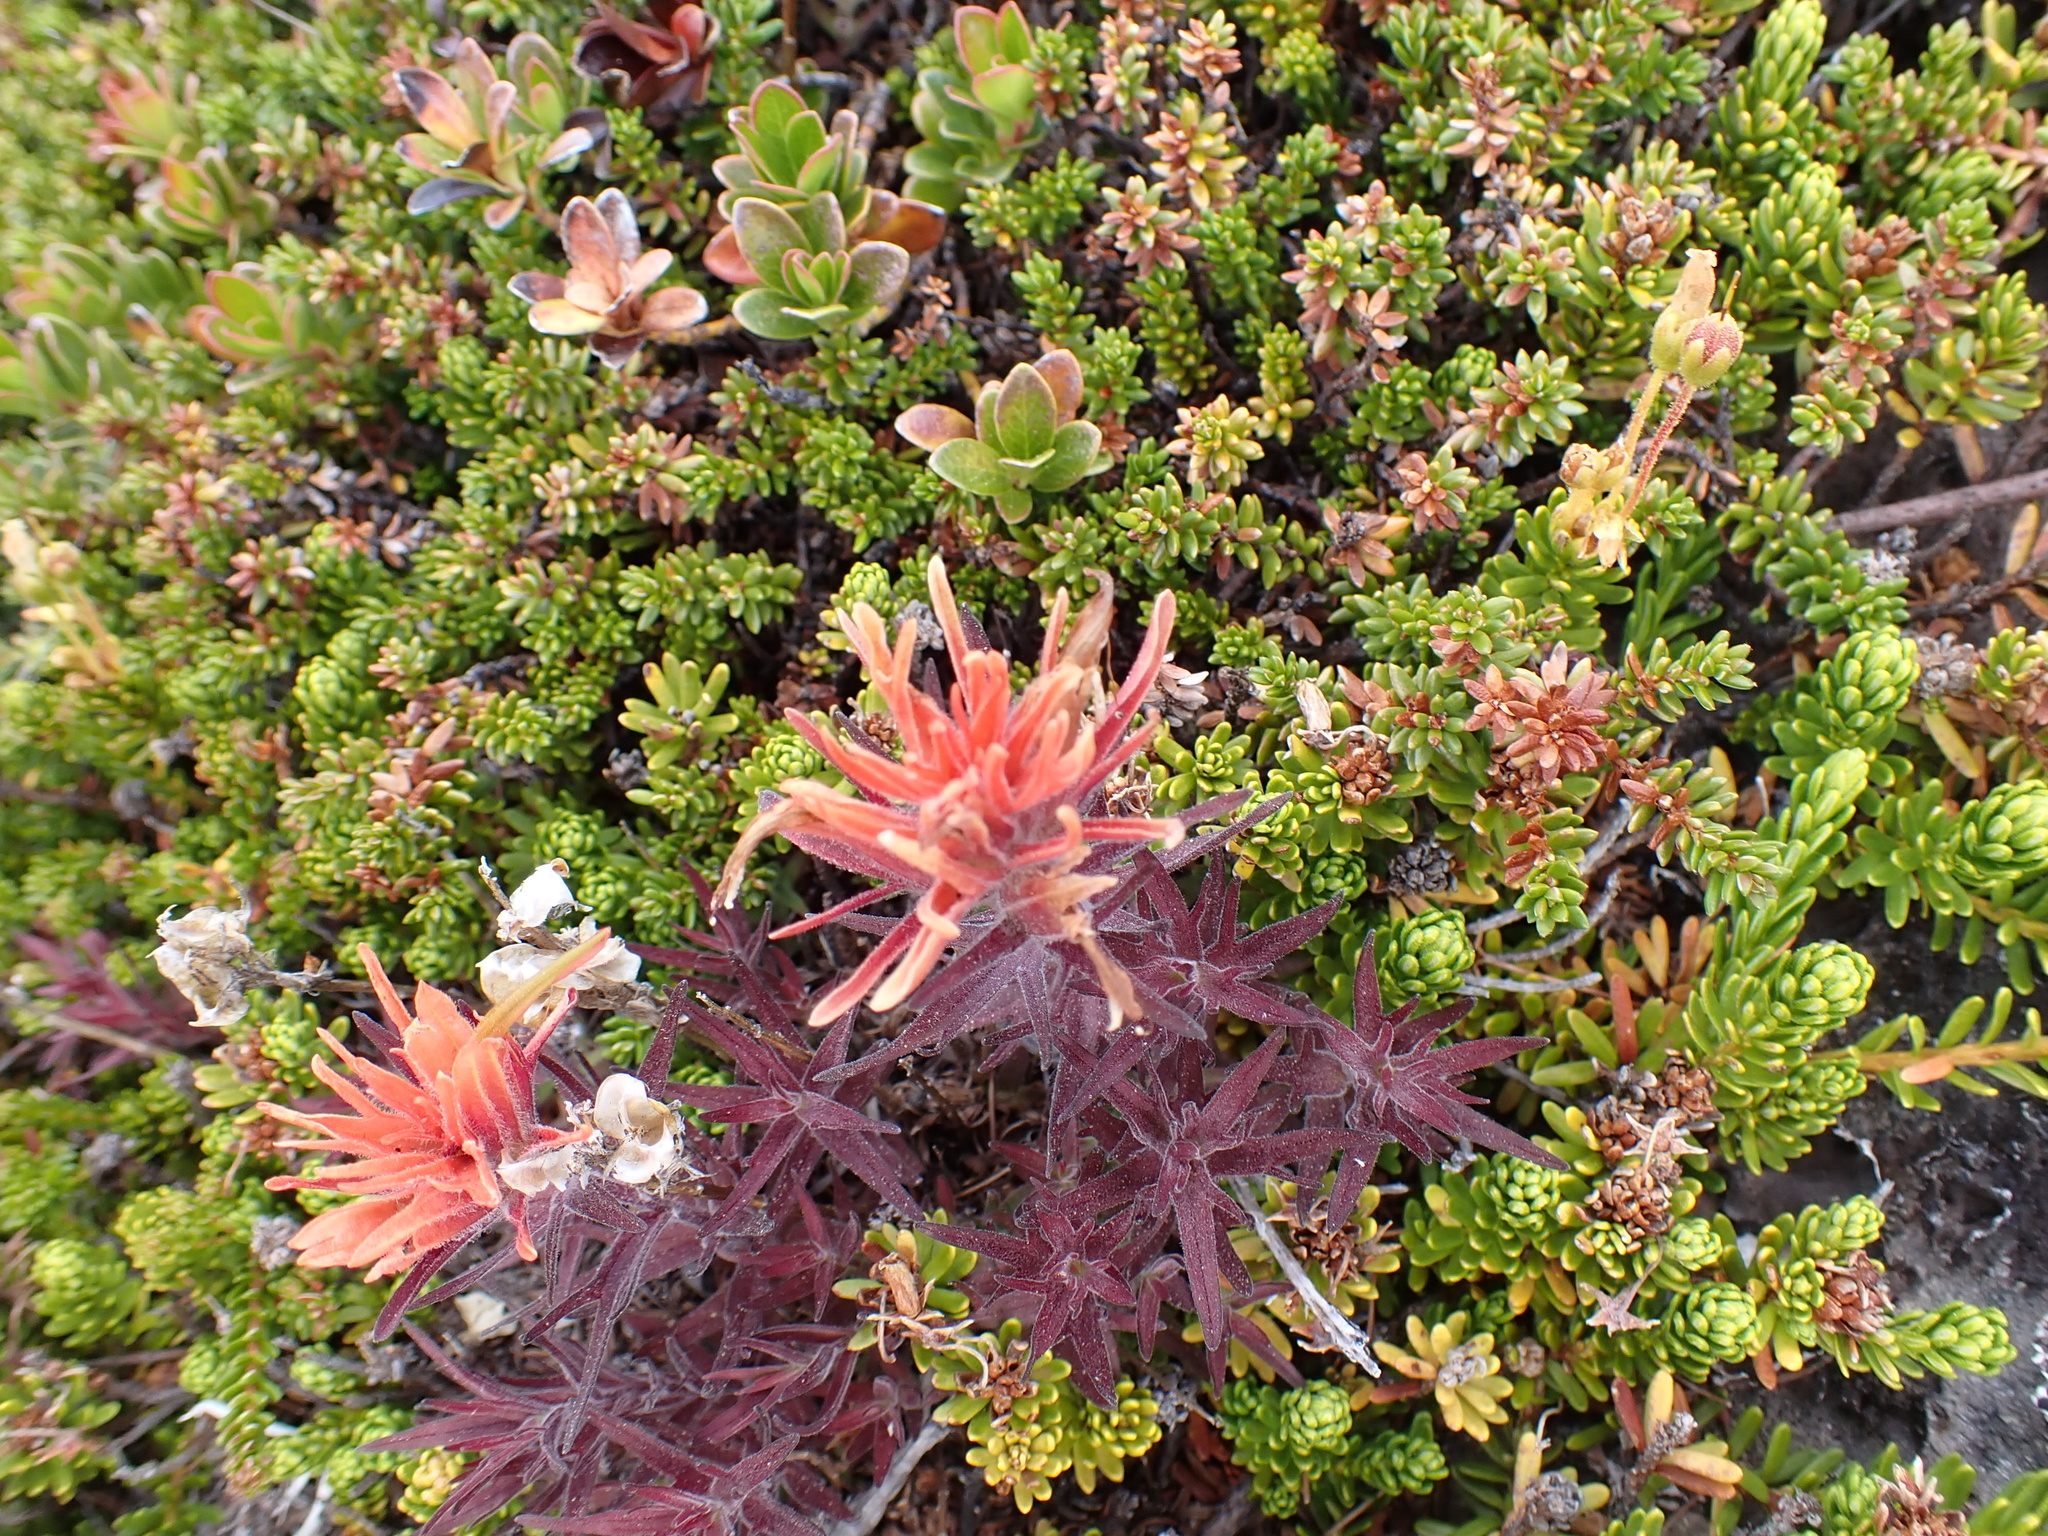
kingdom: Plantae
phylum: Tracheophyta
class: Magnoliopsida
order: Lamiales
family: Orobanchaceae
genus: Castilleja
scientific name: Castilleja rupicola
